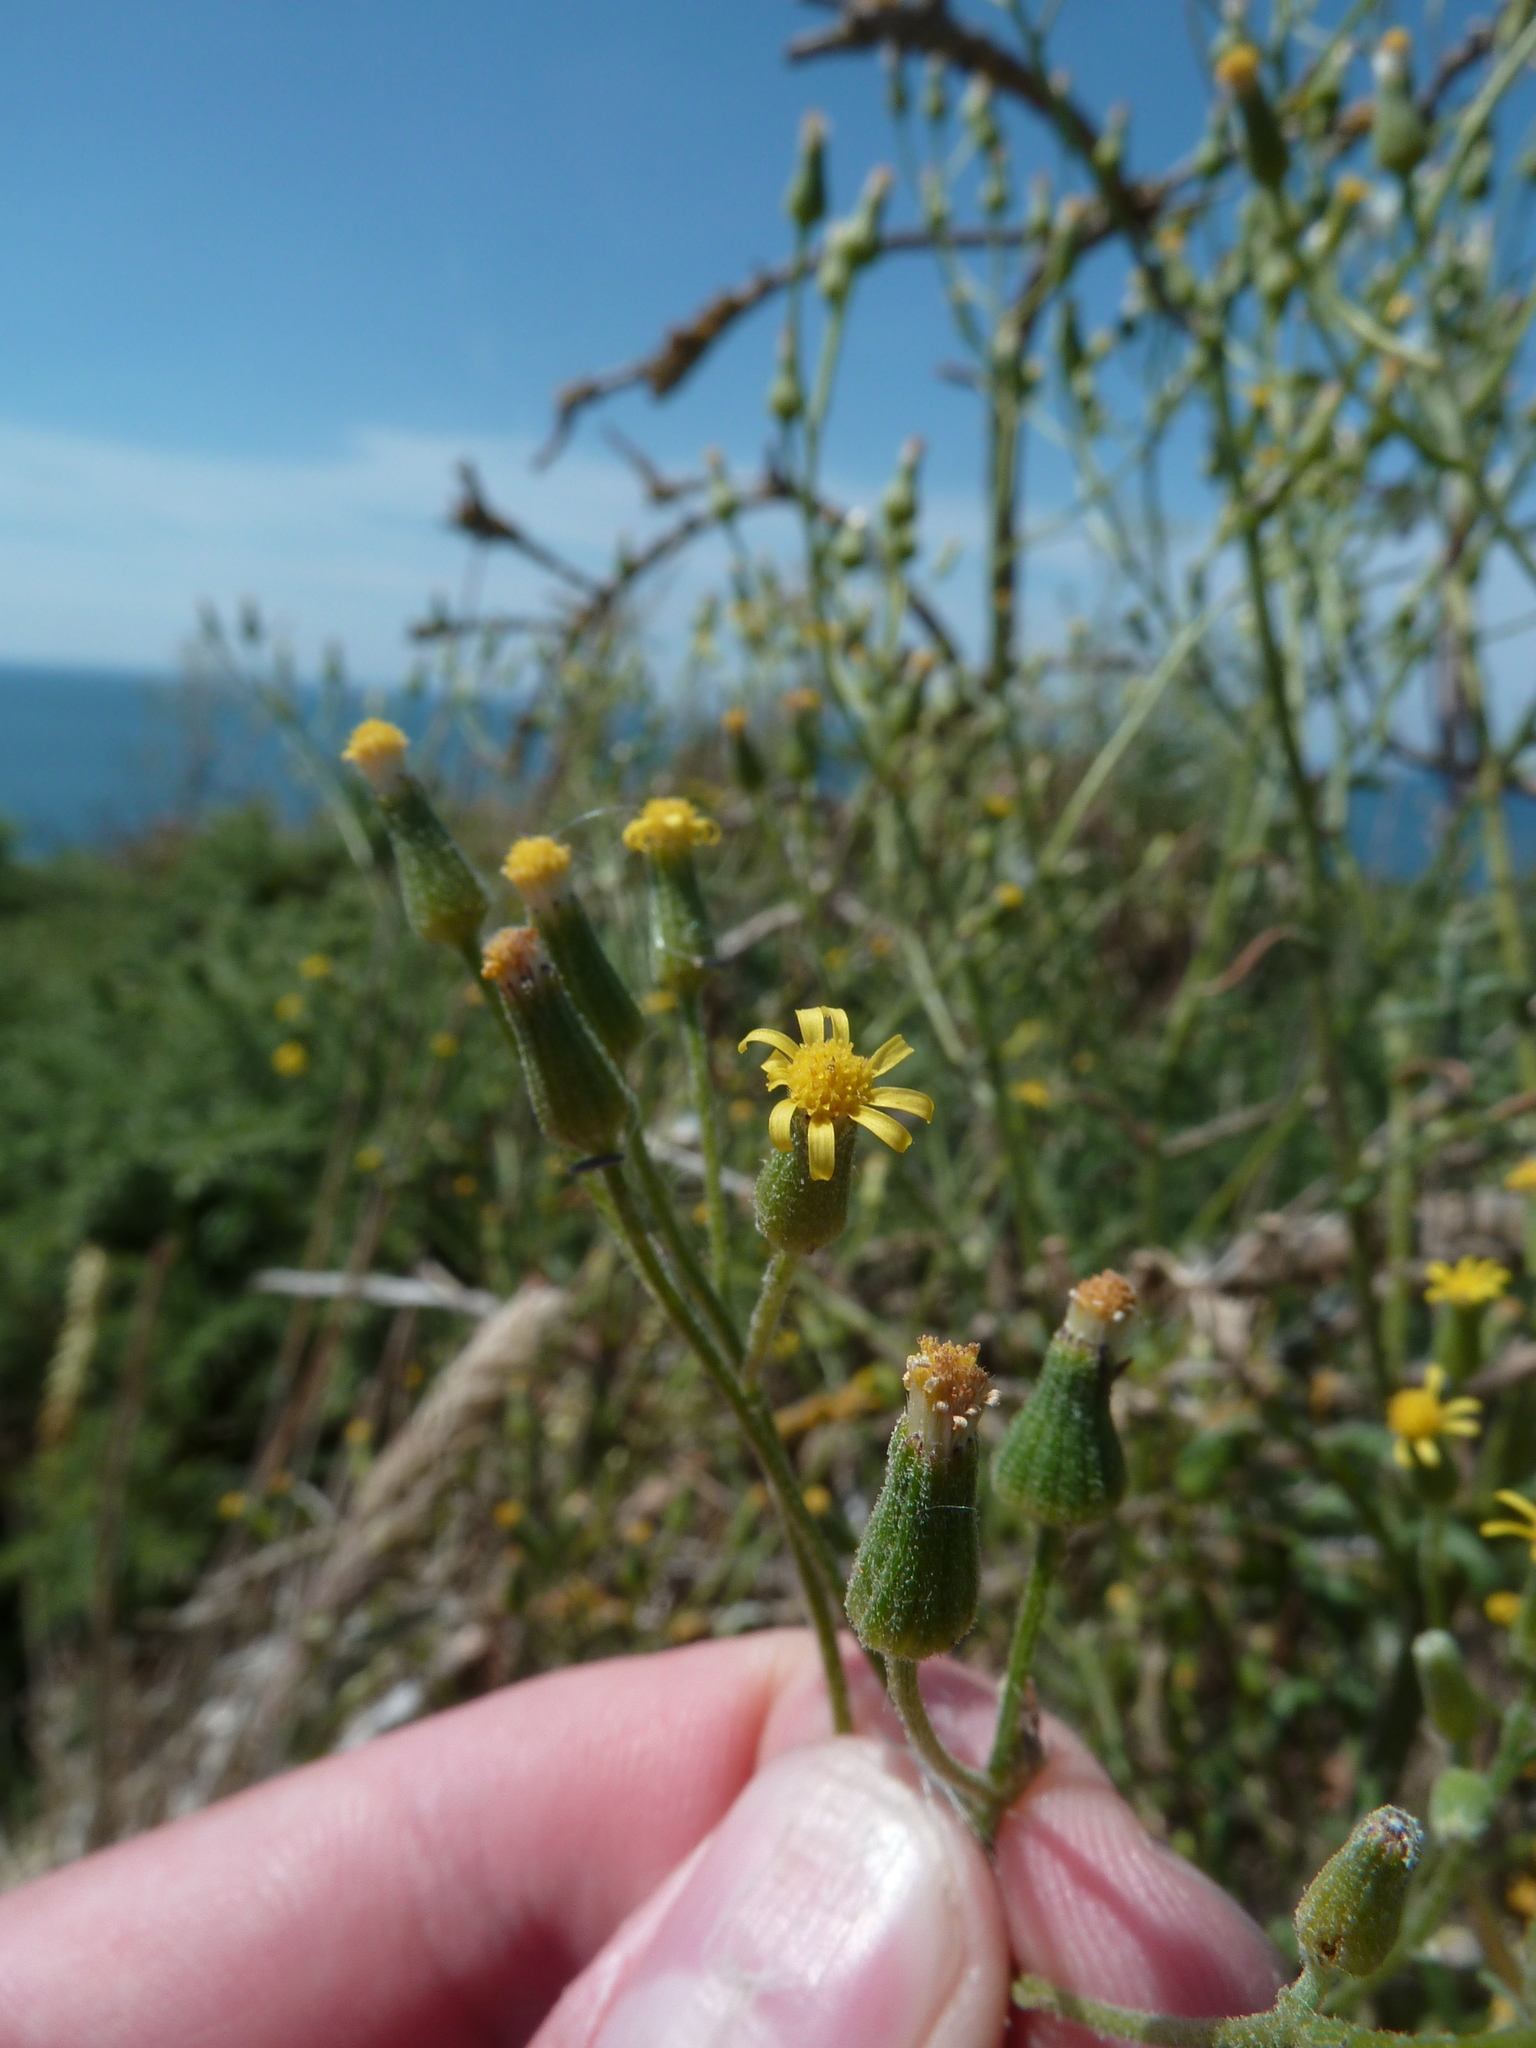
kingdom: Plantae
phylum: Tracheophyta
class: Magnoliopsida
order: Asterales
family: Asteraceae
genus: Senecio
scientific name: Senecio sylvaticus
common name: Woodland ragwort
